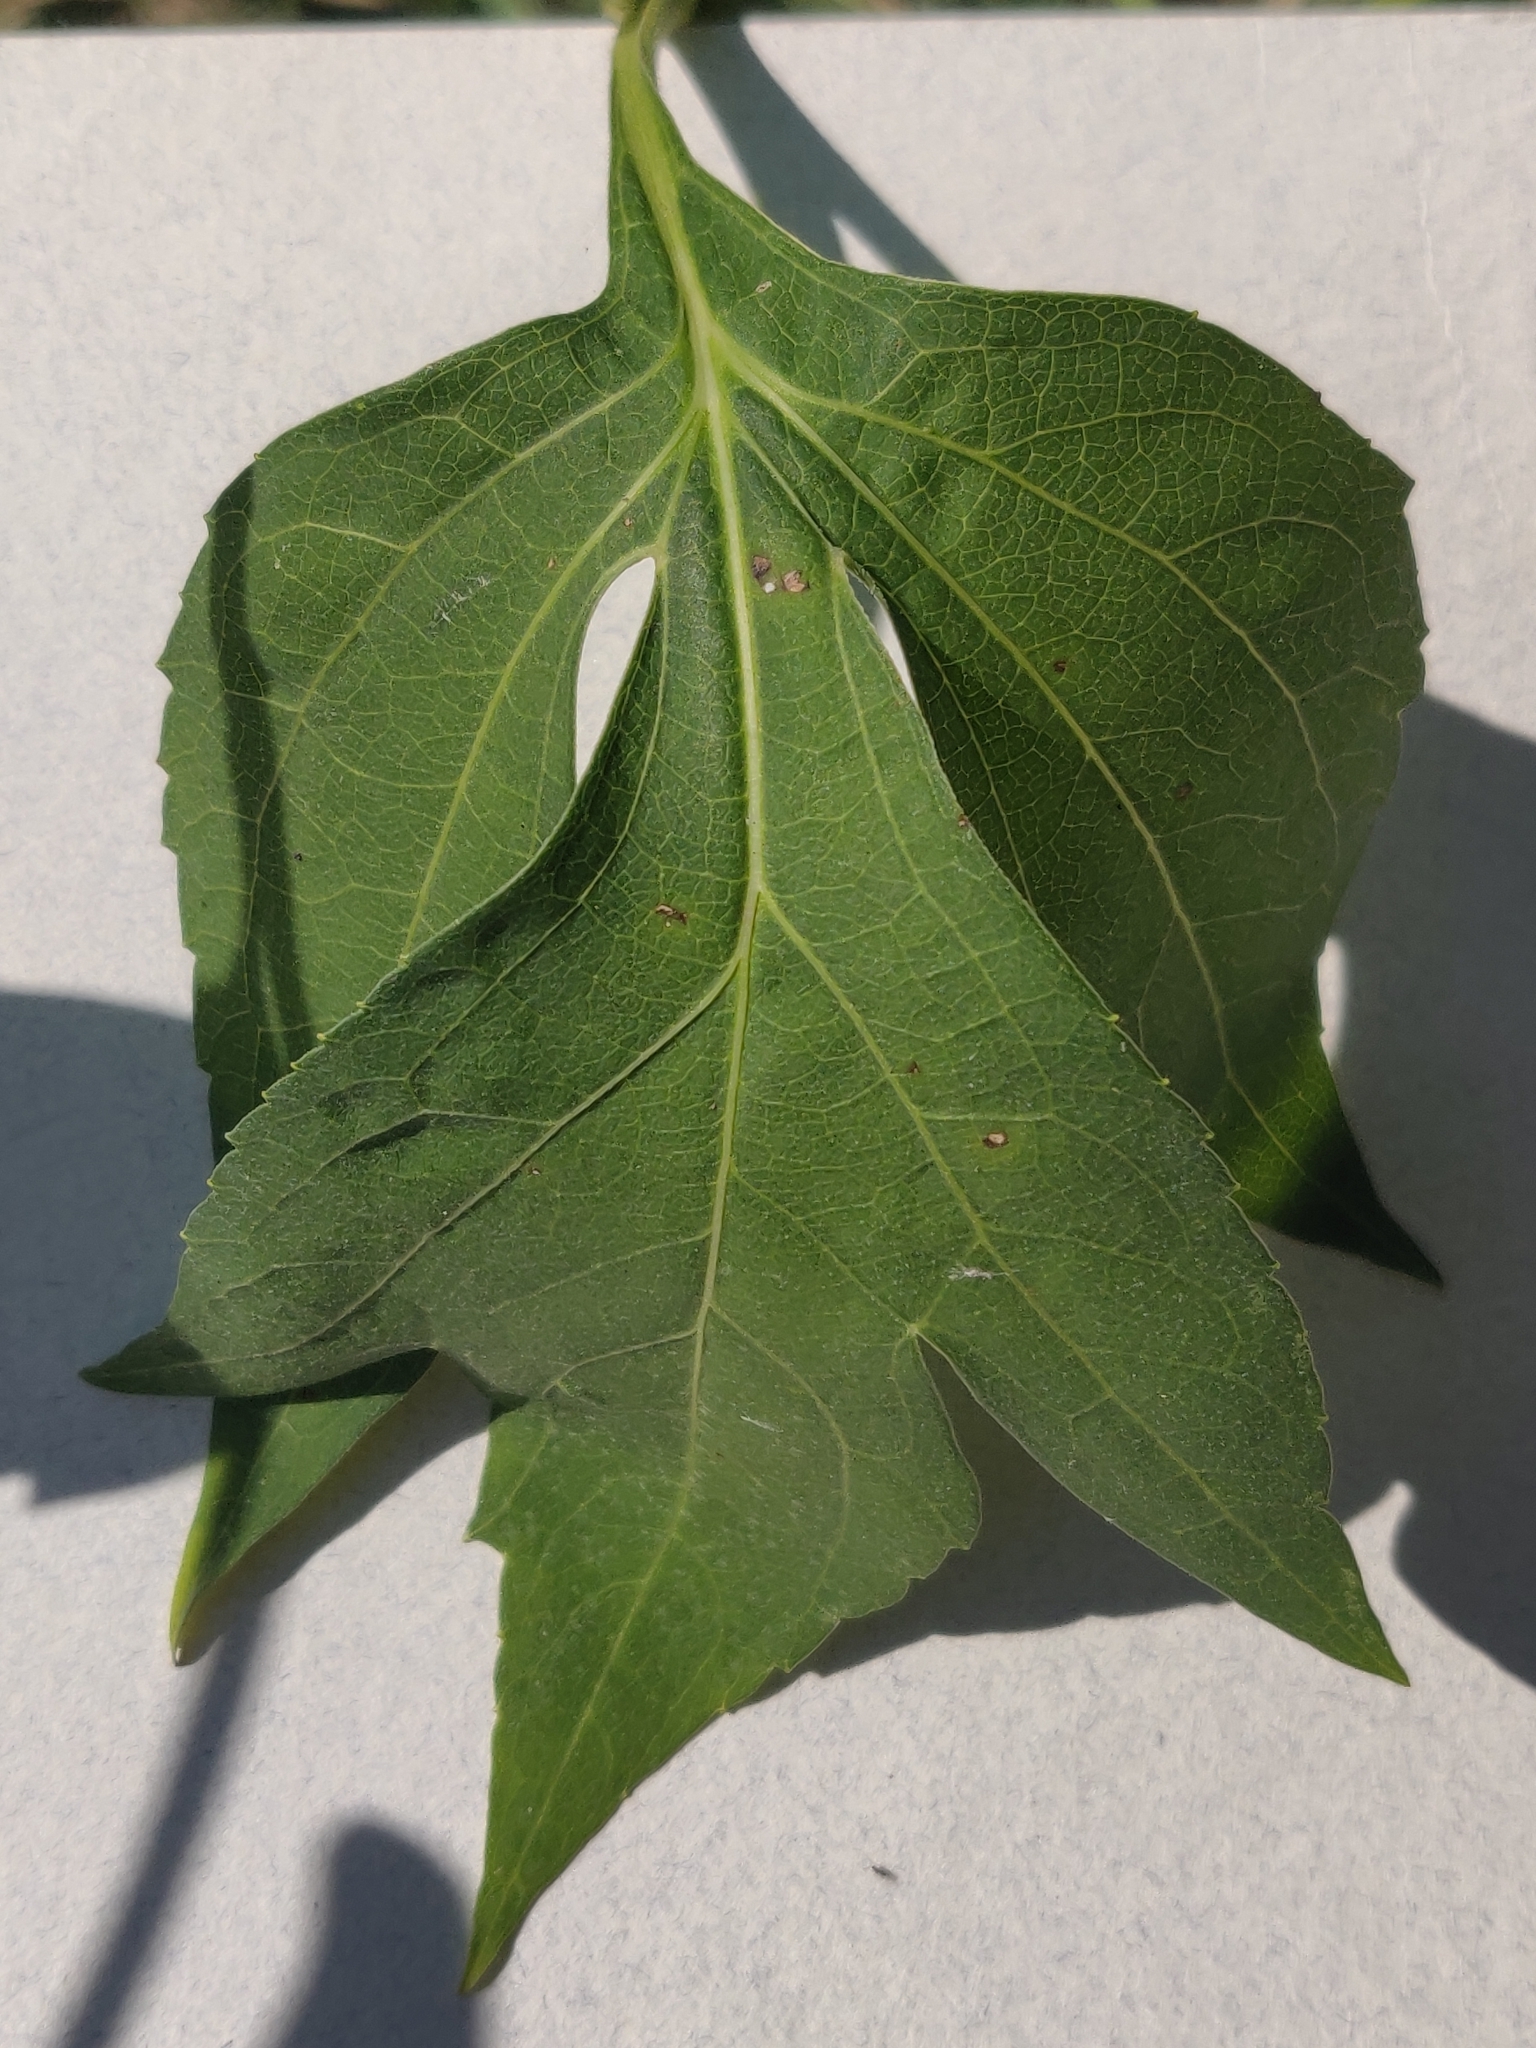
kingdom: Plantae
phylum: Tracheophyta
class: Magnoliopsida
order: Asterales
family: Asteraceae
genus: Rudbeckia
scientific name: Rudbeckia laciniata
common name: Coneflower
